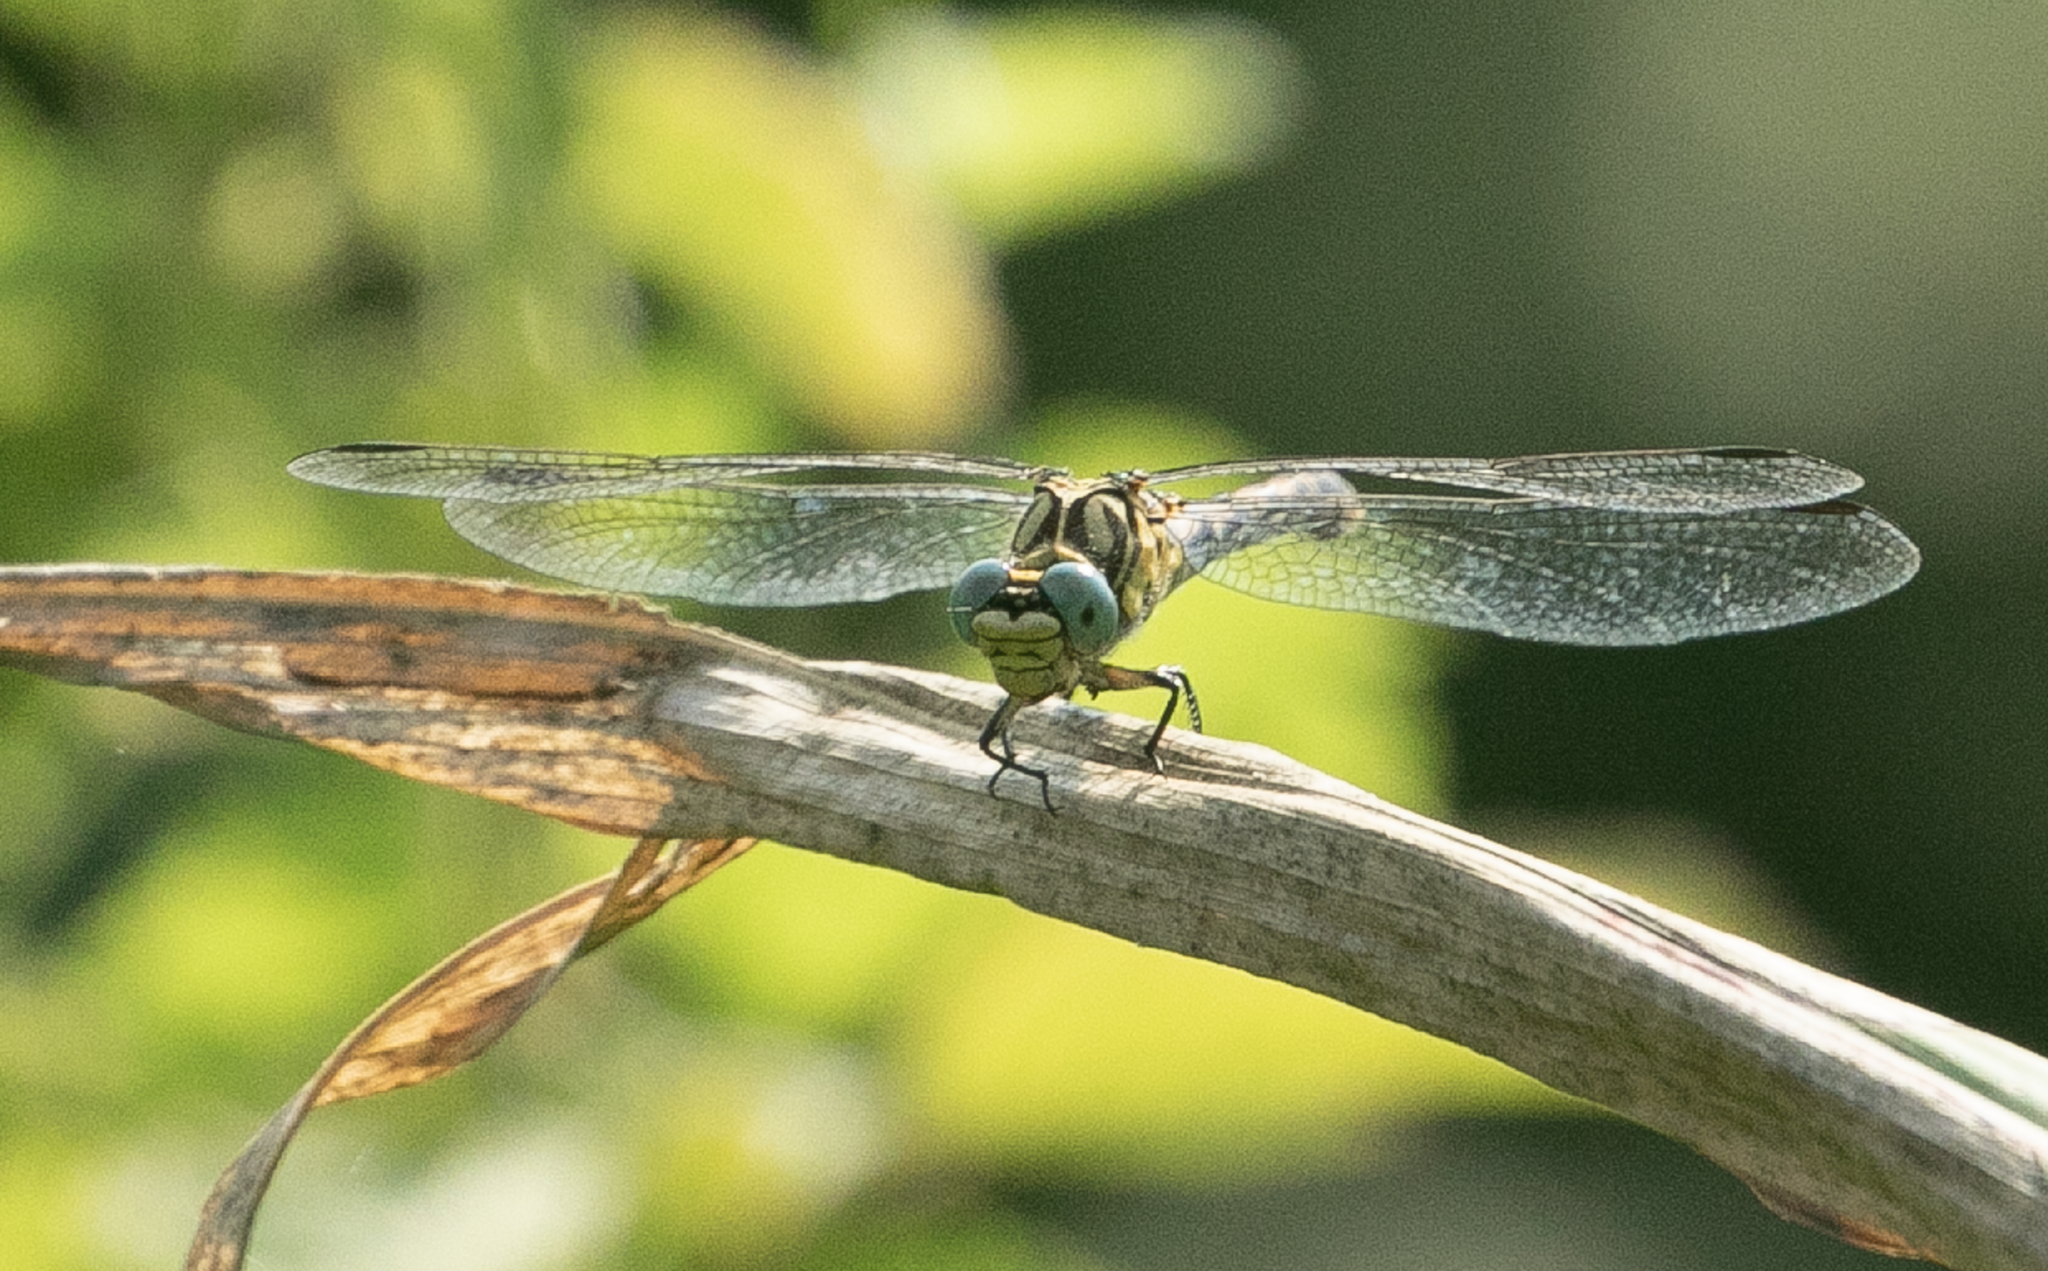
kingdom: Animalia
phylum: Arthropoda
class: Insecta
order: Odonata
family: Gomphidae
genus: Onychogomphus
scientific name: Onychogomphus forcipatus
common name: Small pincertail
